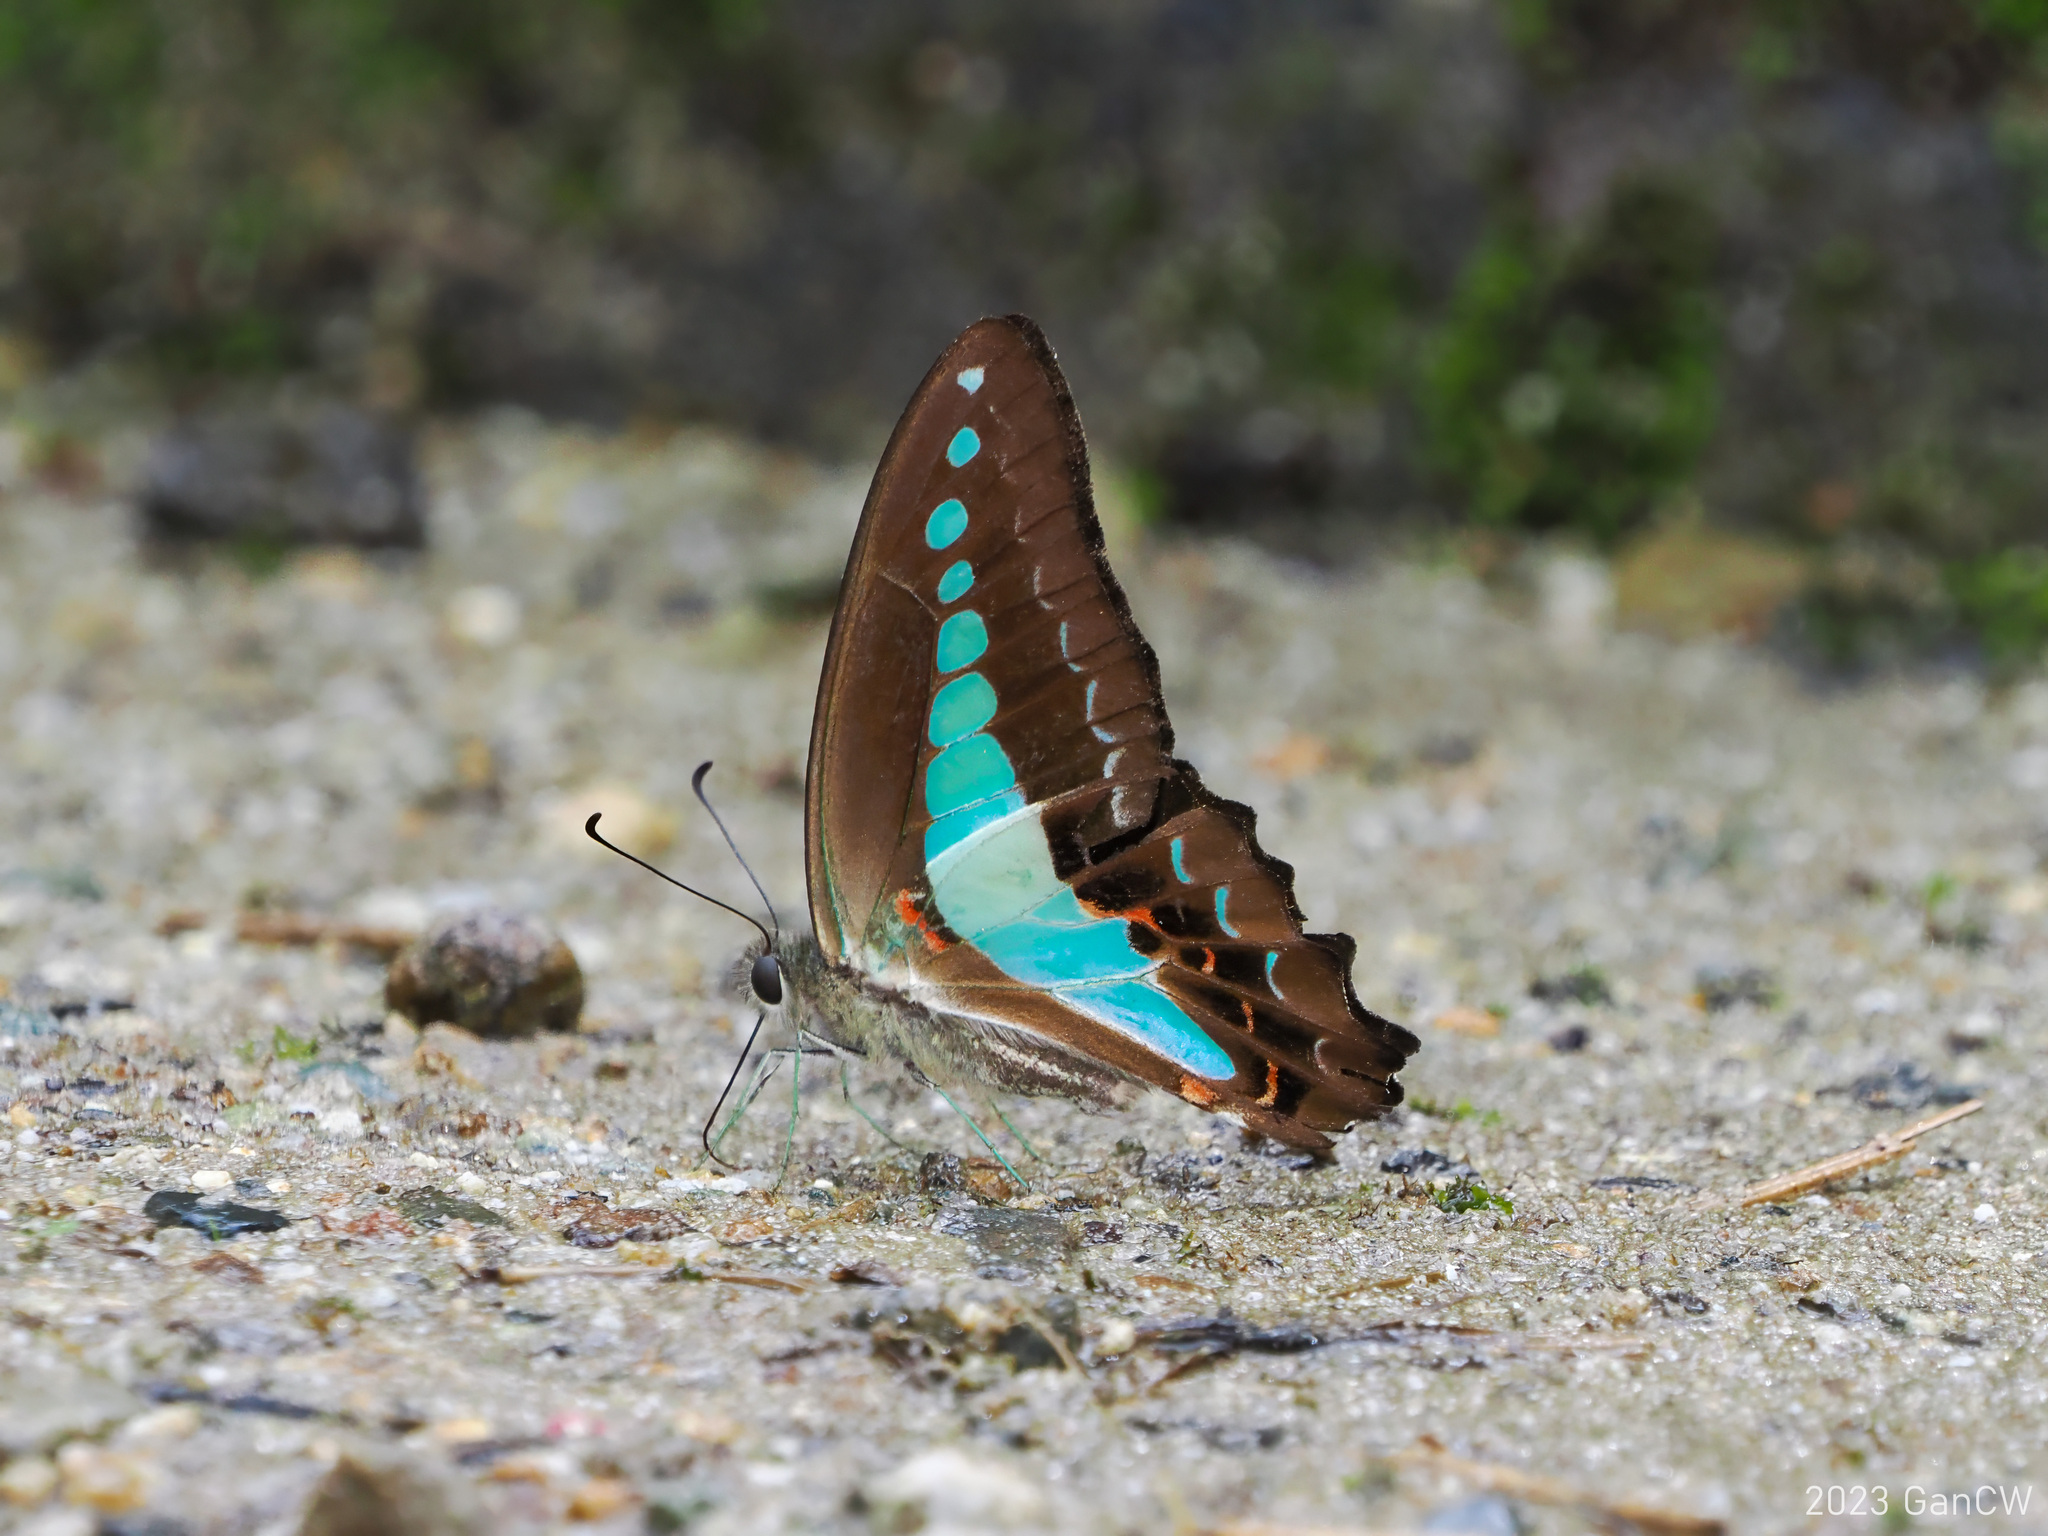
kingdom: Animalia
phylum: Arthropoda
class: Insecta
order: Lepidoptera
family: Papilionidae
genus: Graphium
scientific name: Graphium monticolus
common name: Sulawesi blue triangle
